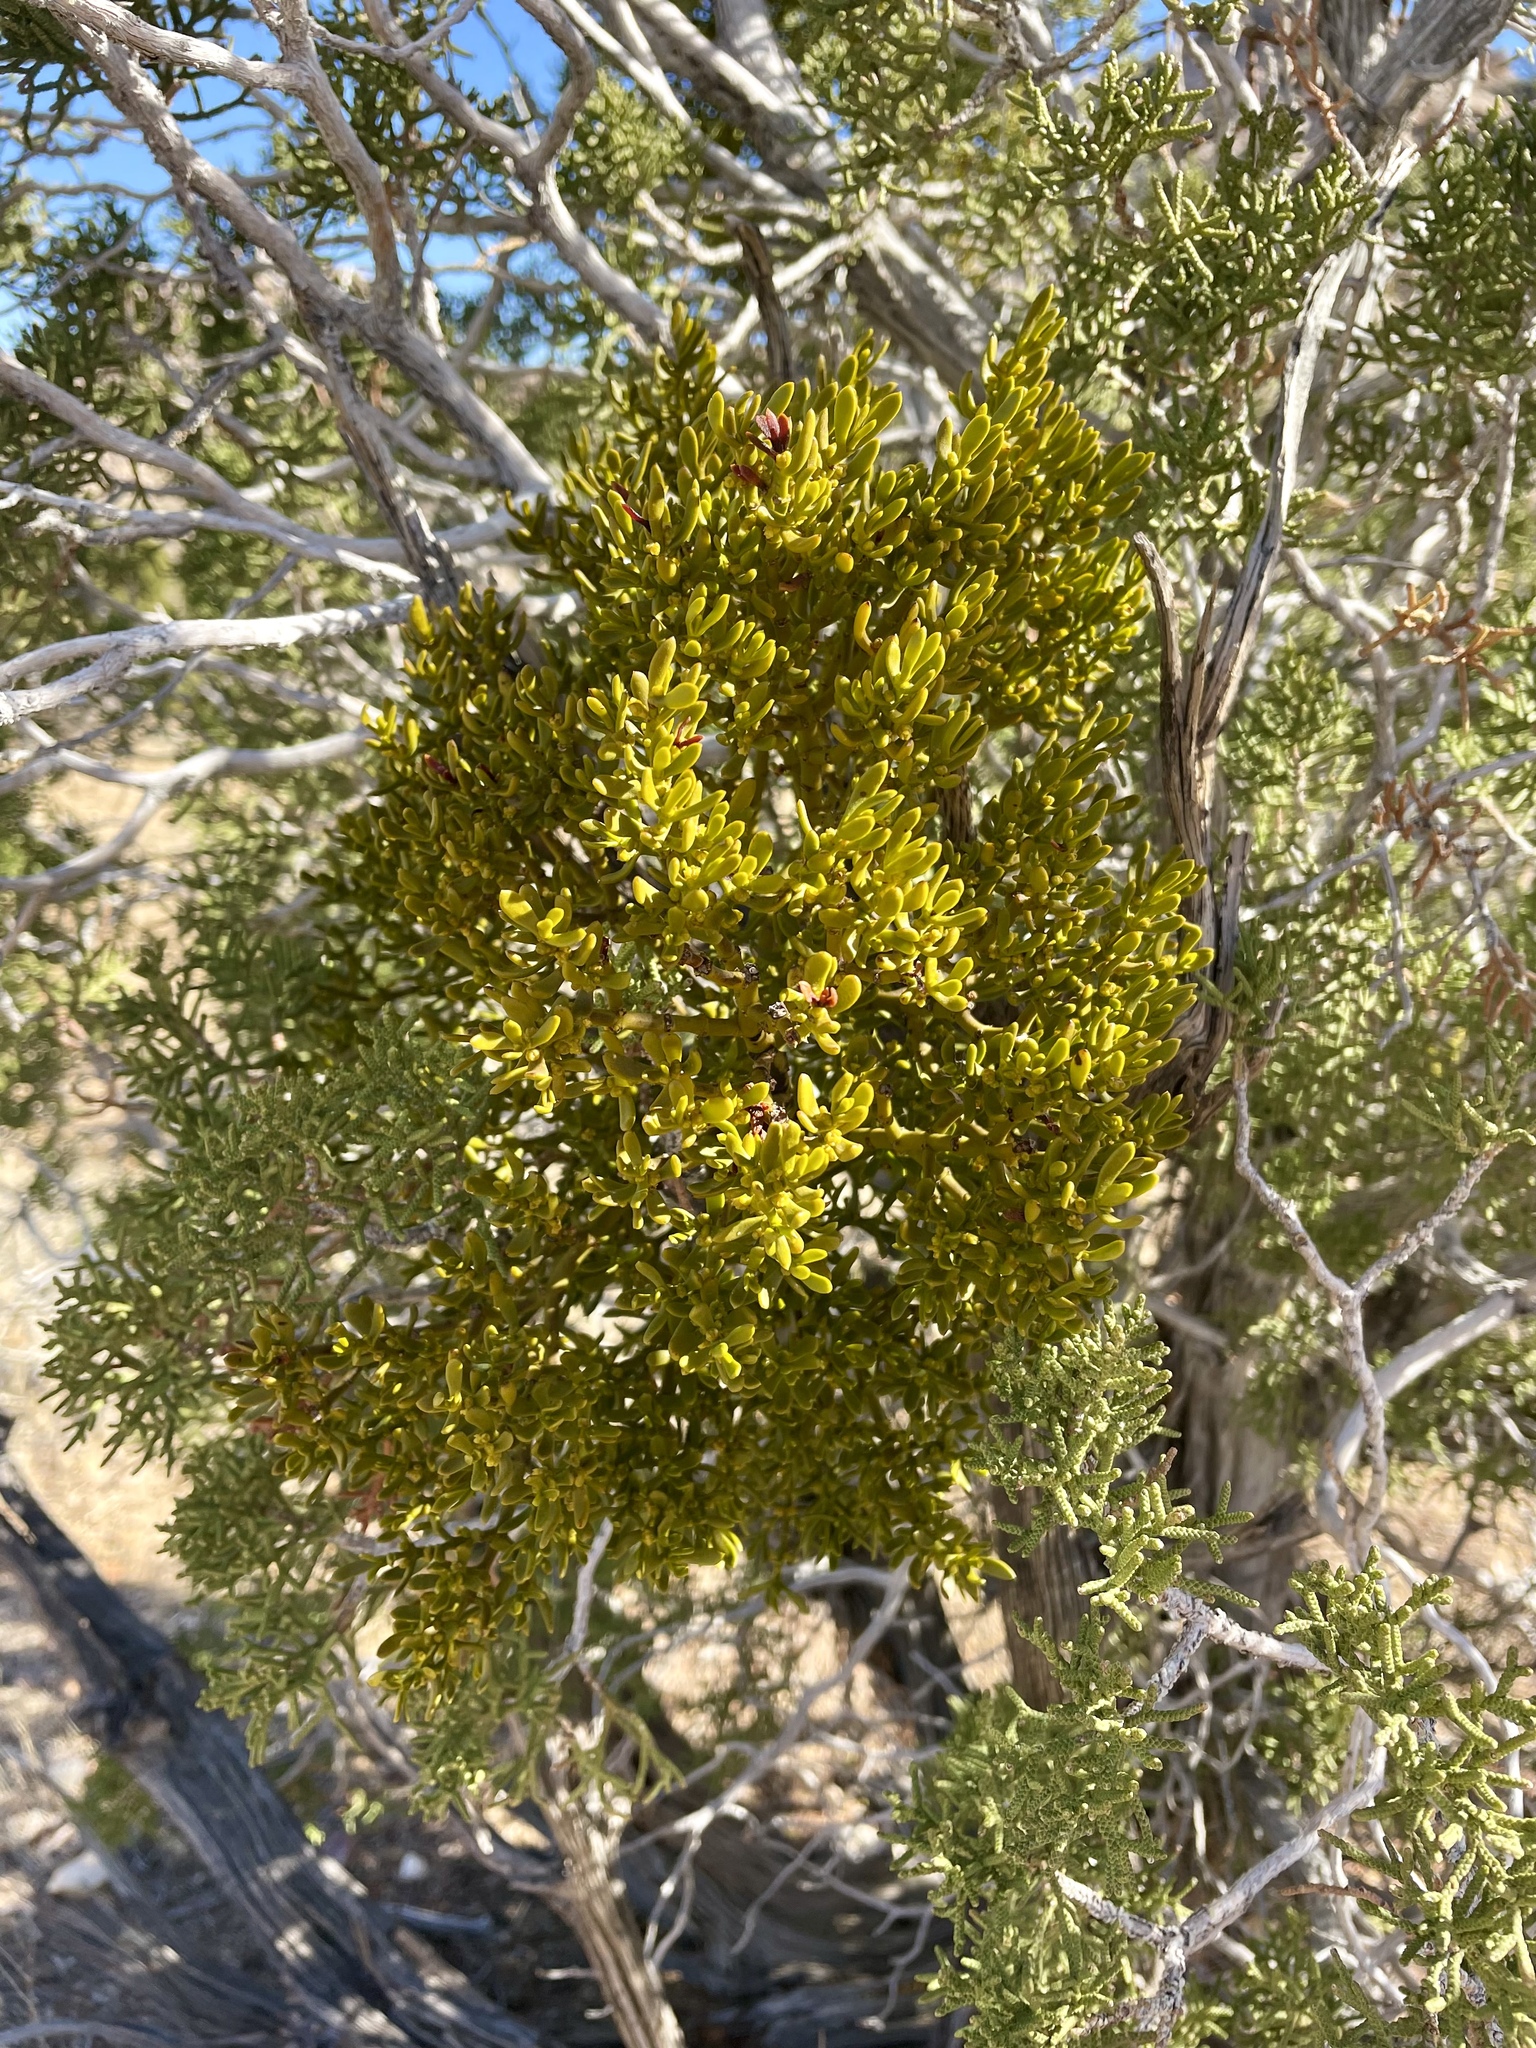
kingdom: Plantae
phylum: Tracheophyta
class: Magnoliopsida
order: Santalales
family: Viscaceae
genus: Phoradendron
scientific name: Phoradendron bolleanum
